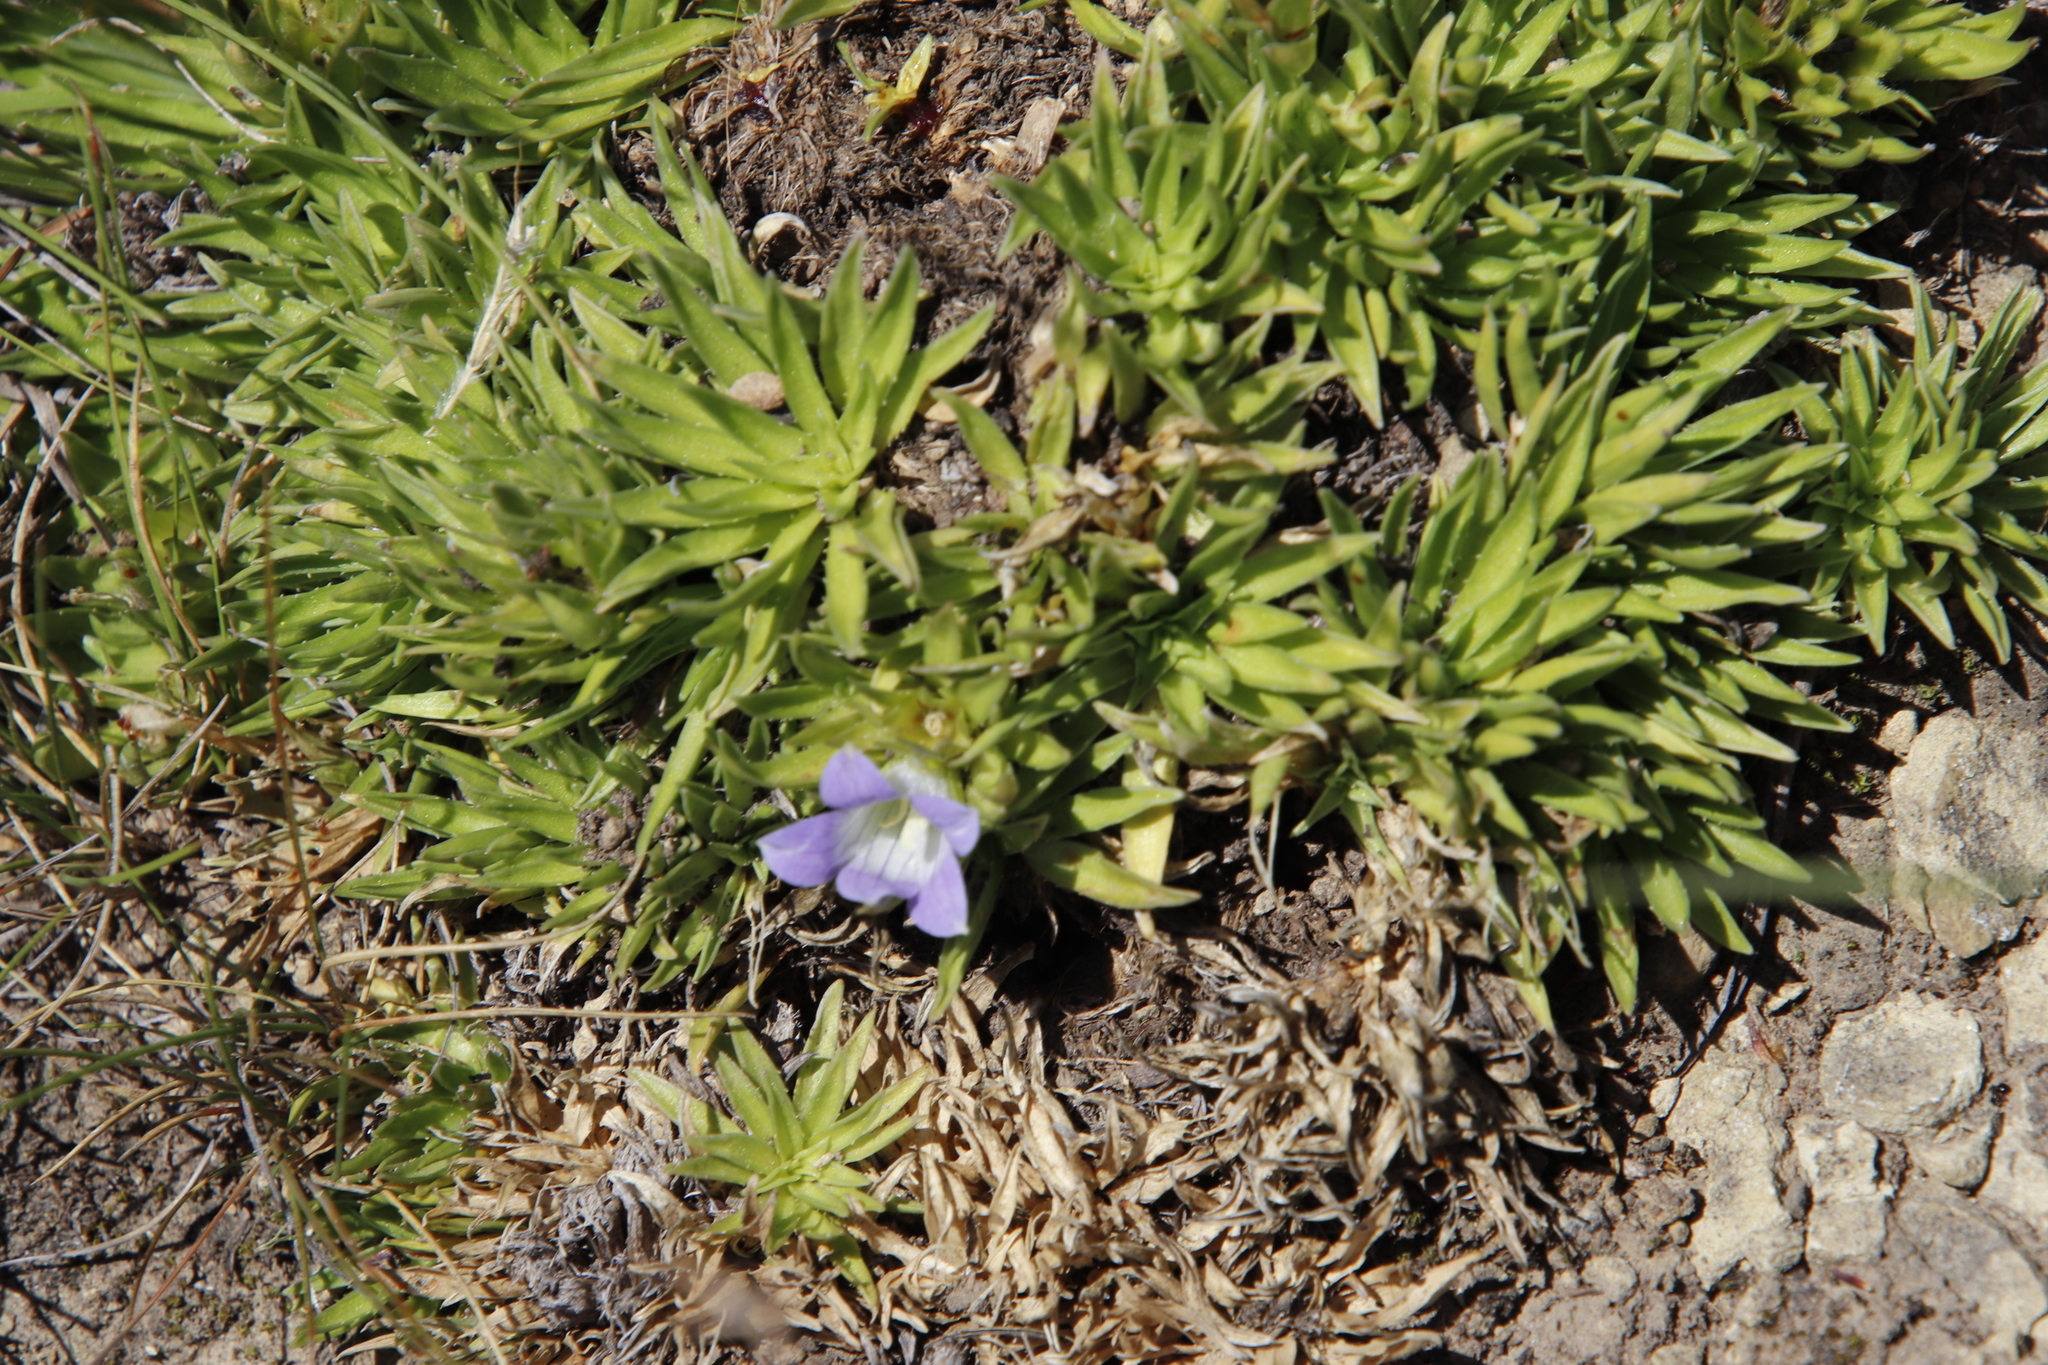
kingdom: Plantae
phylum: Tracheophyta
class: Magnoliopsida
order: Asterales
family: Campanulaceae
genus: Craterocapsa
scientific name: Craterocapsa tarsodes
